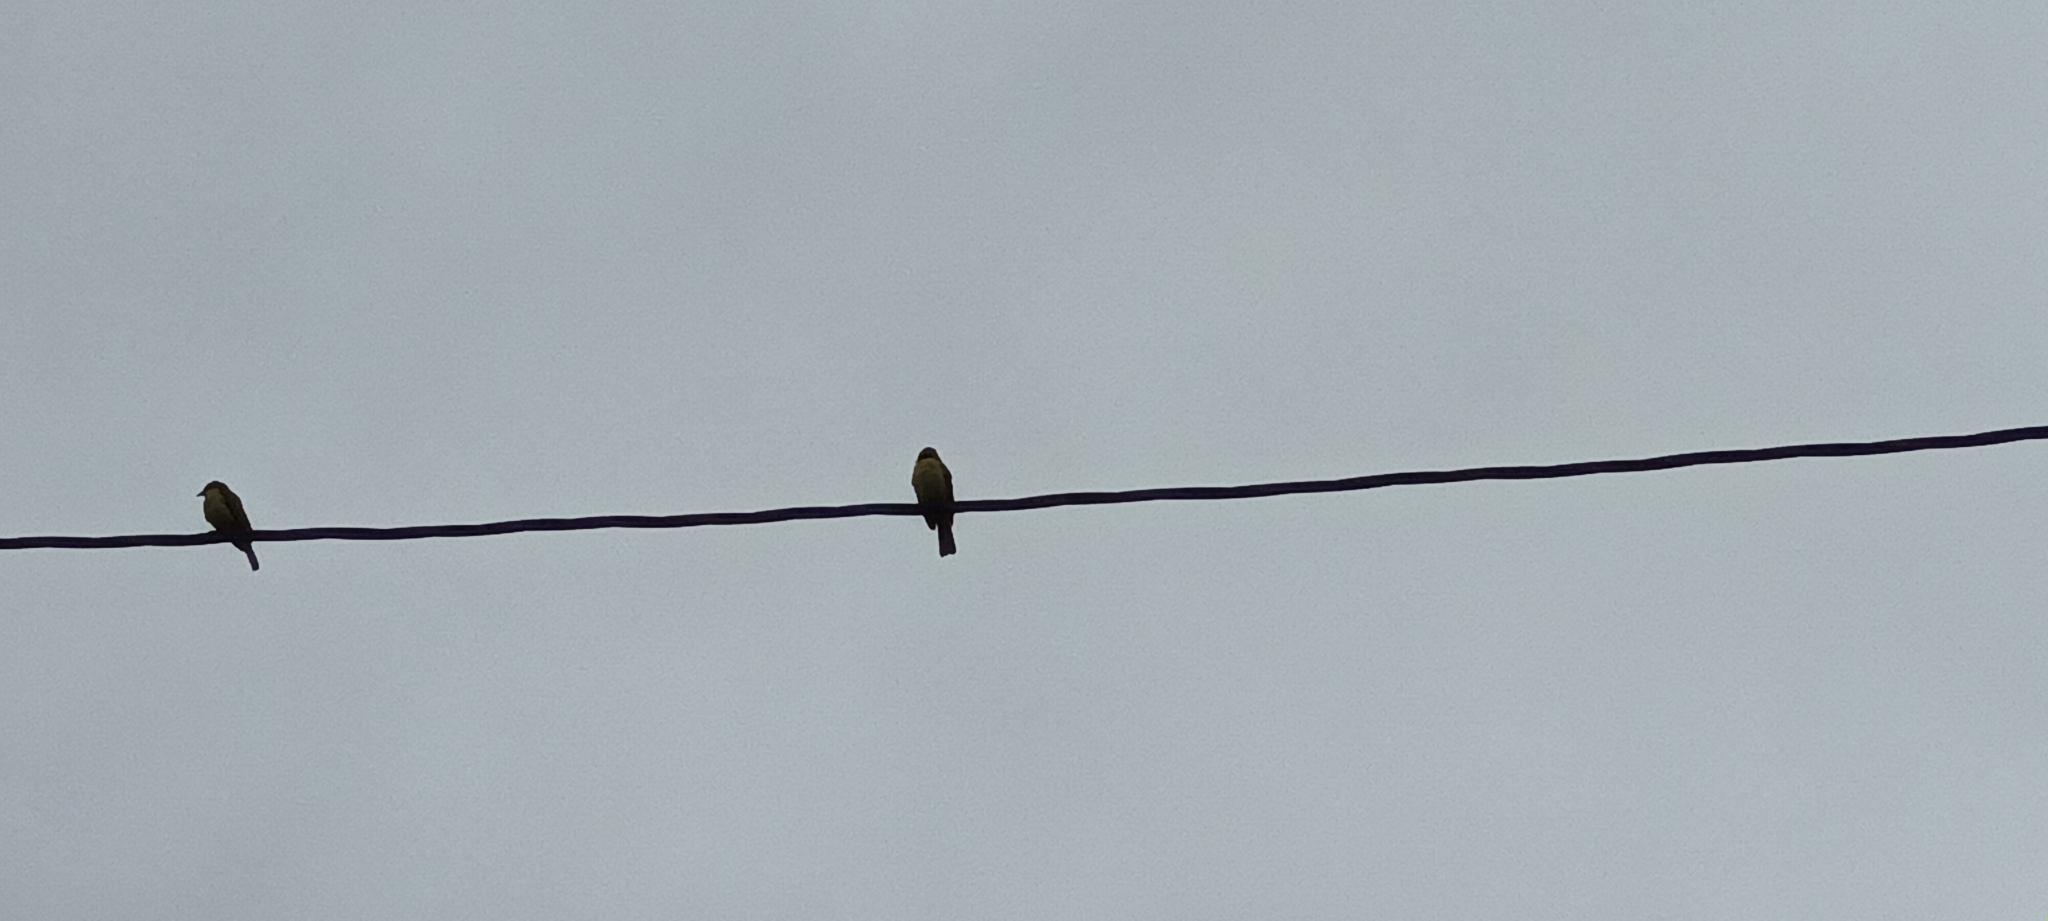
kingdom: Animalia
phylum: Chordata
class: Aves
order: Passeriformes
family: Tyrannidae
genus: Myiozetetes
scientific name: Myiozetetes similis
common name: Social flycatcher
